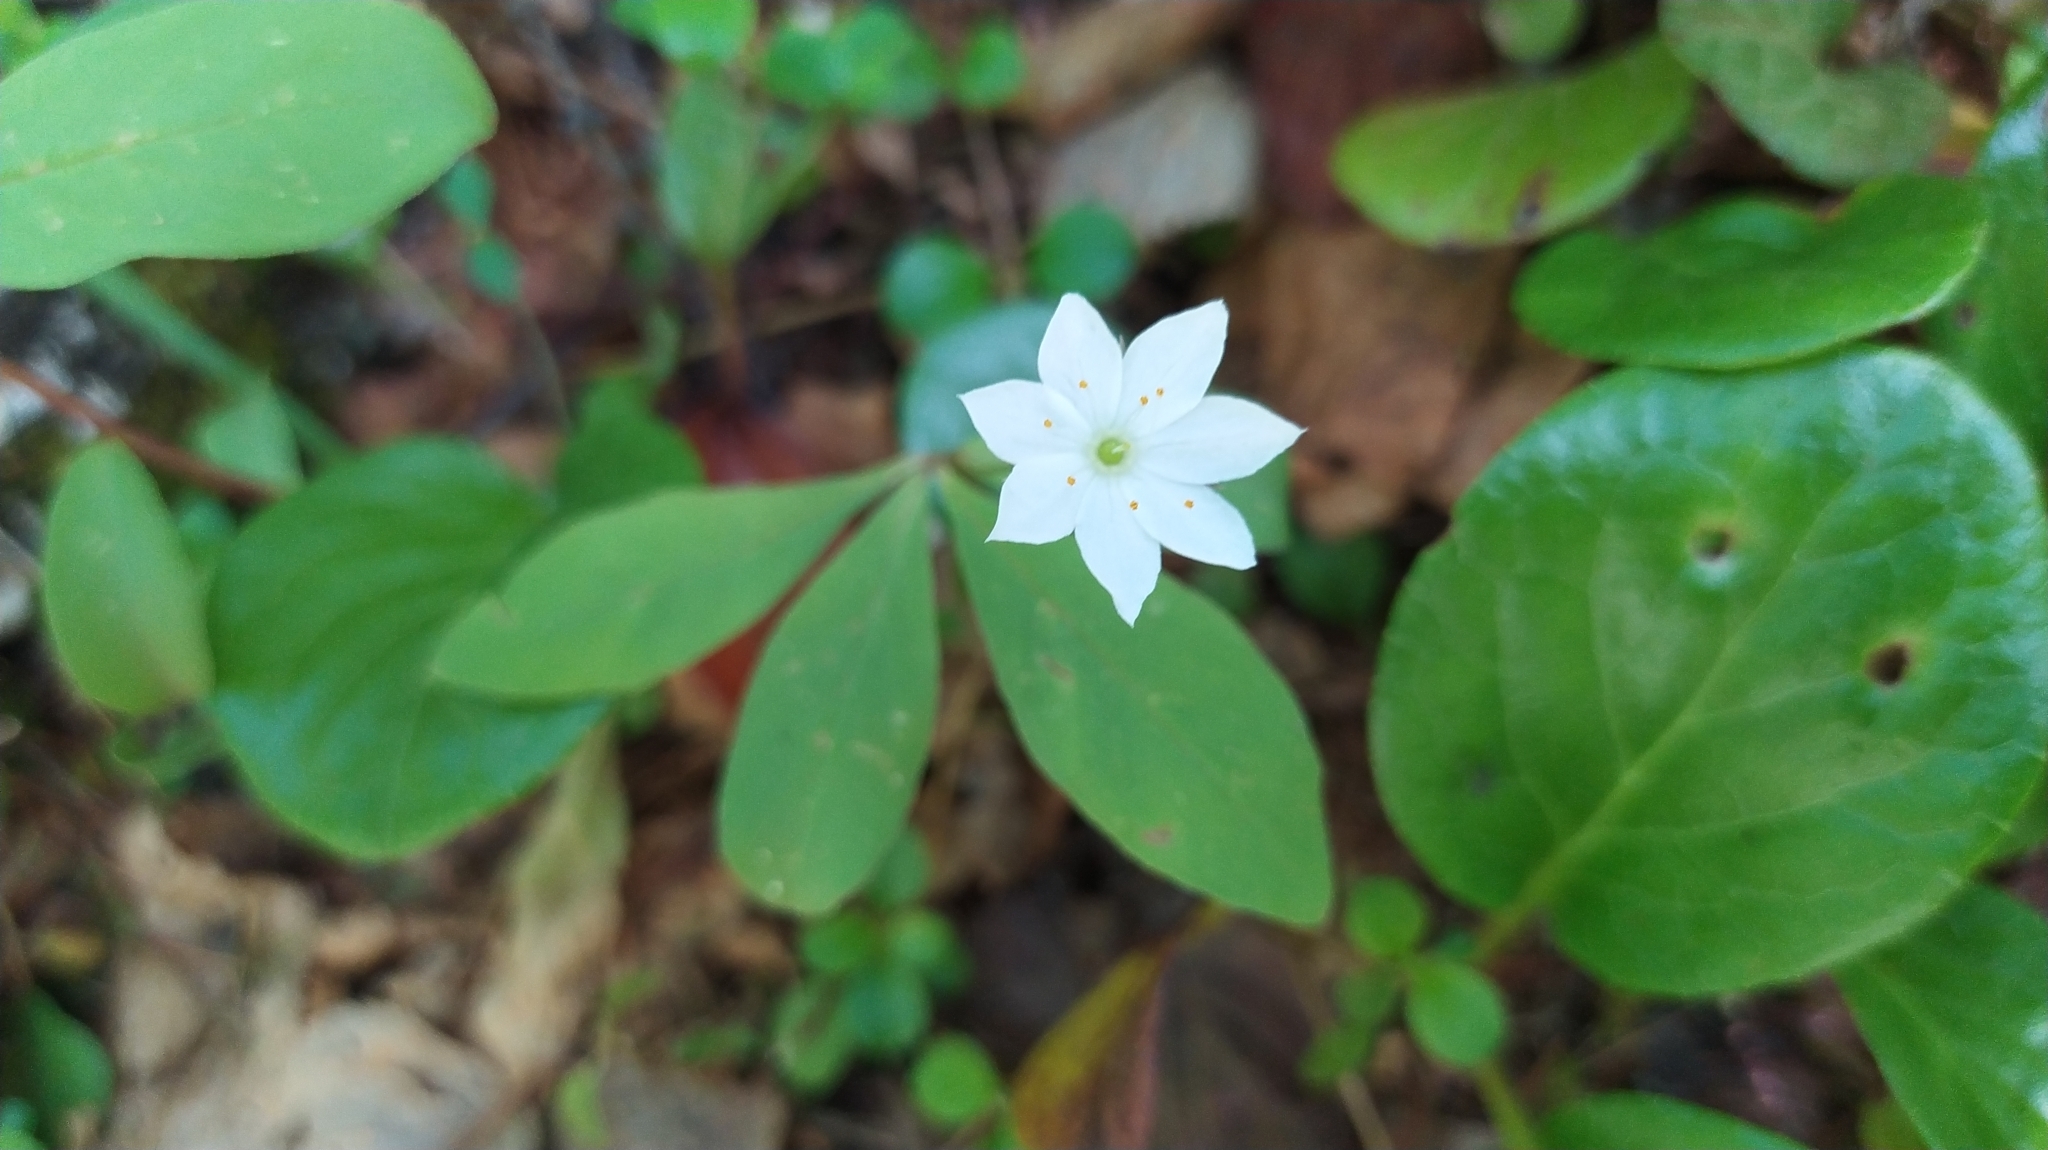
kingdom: Plantae
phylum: Tracheophyta
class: Magnoliopsida
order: Ericales
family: Primulaceae
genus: Lysimachia
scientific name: Lysimachia europaea
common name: Arctic starflower
